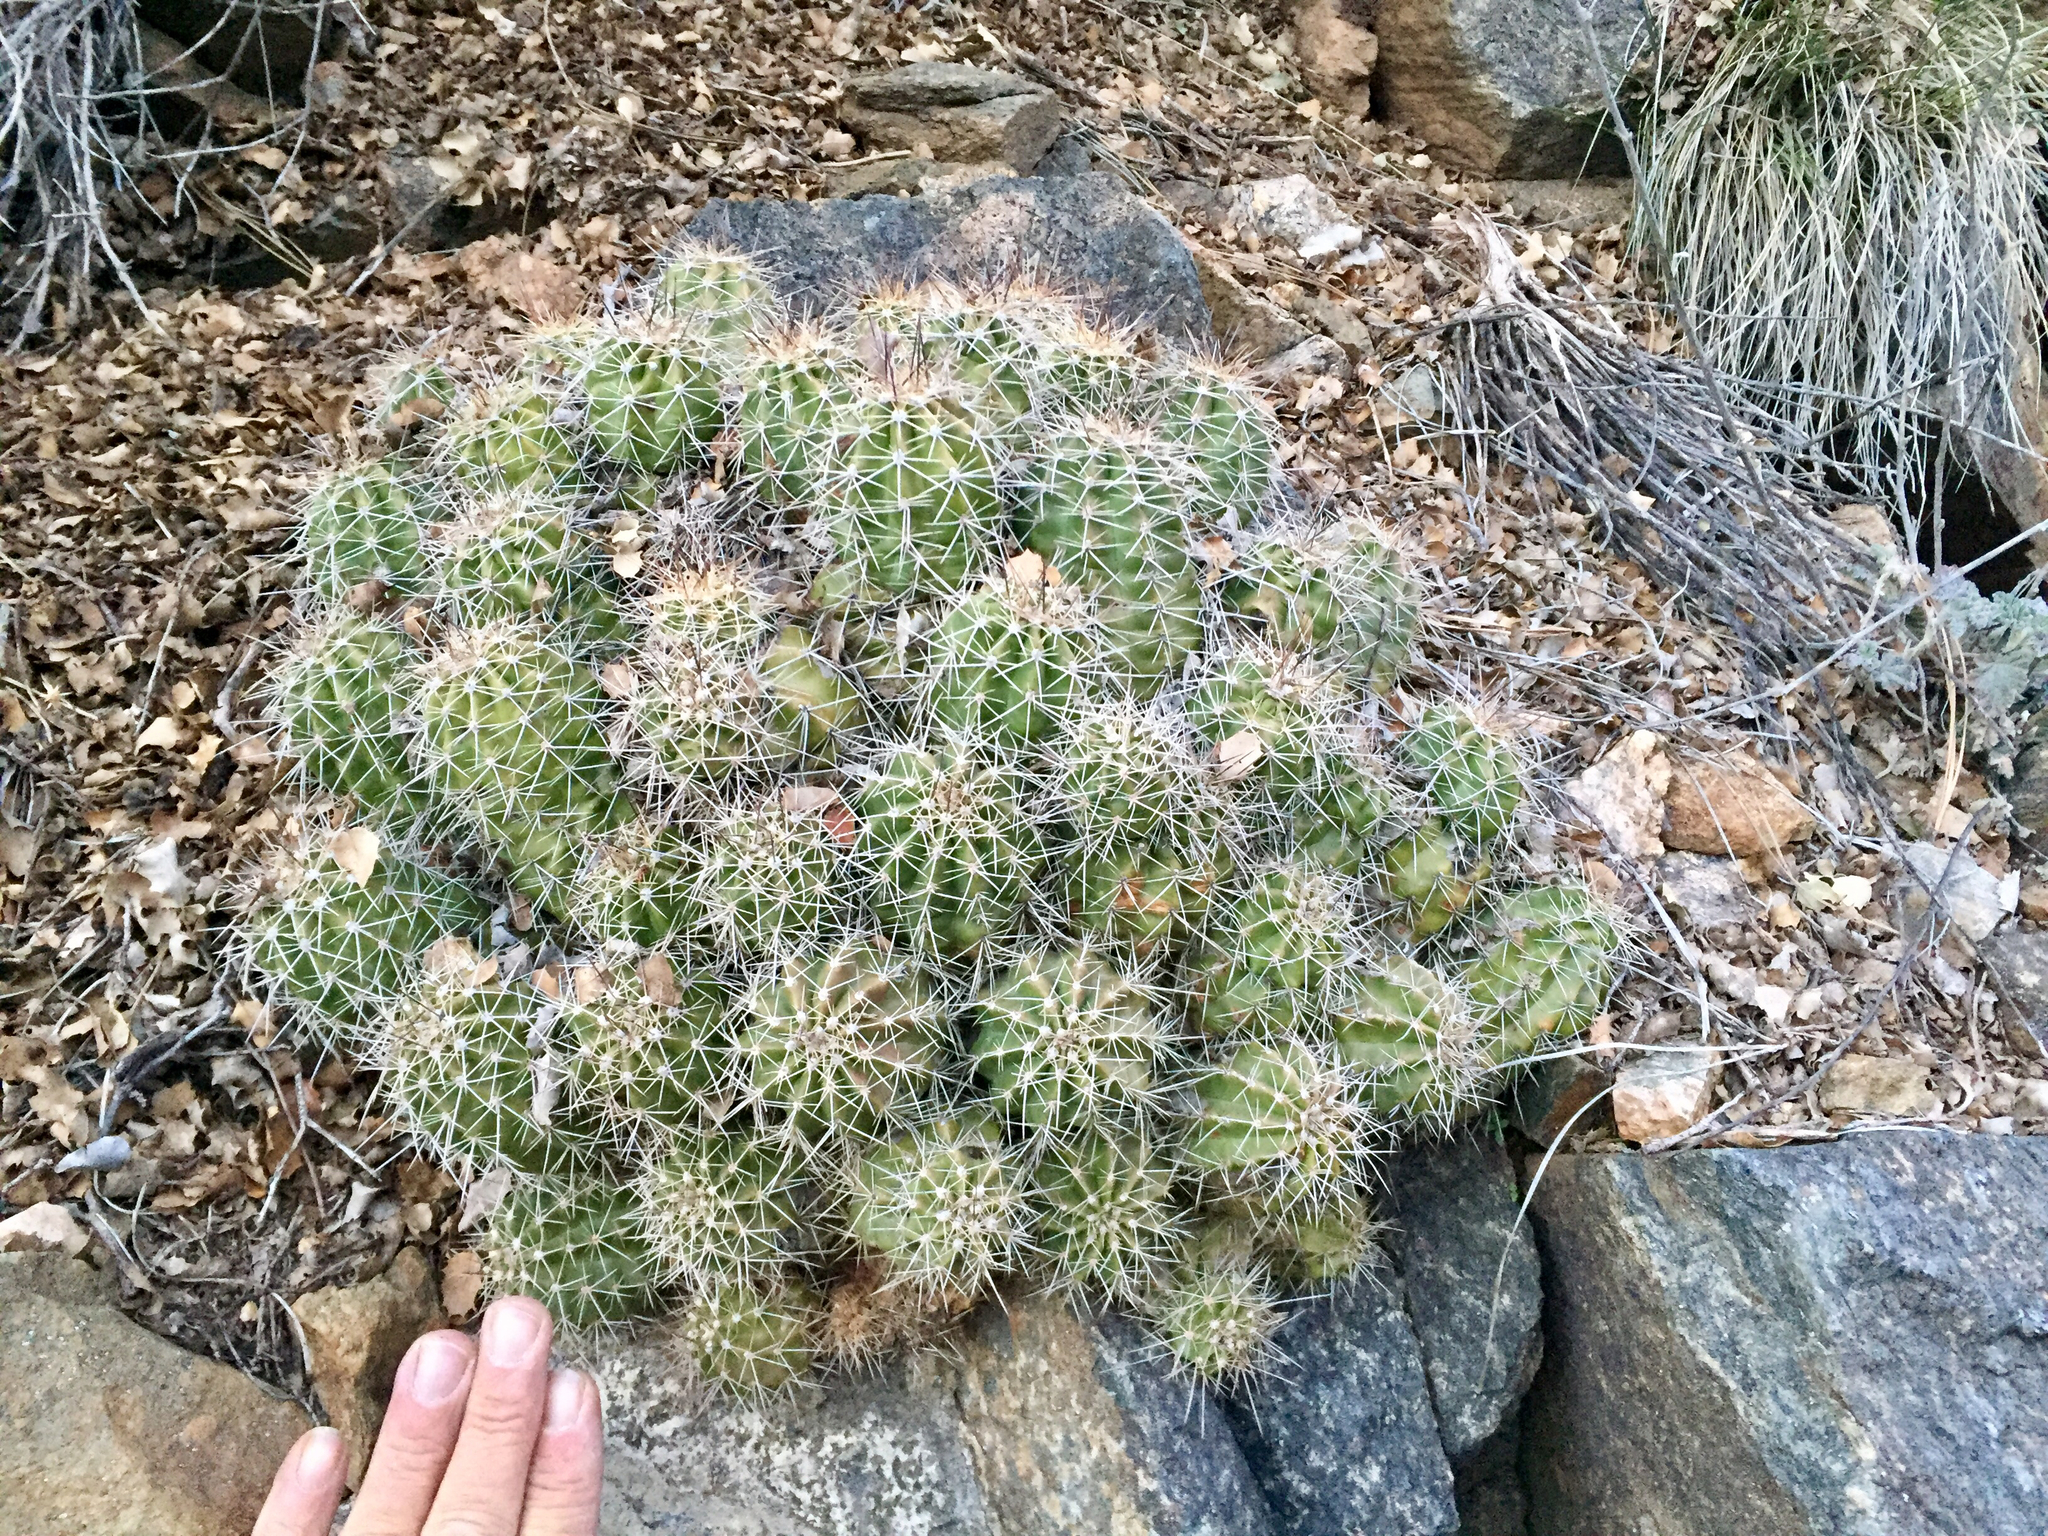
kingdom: Plantae
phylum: Tracheophyta
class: Magnoliopsida
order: Caryophyllales
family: Cactaceae
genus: Echinocereus
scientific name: Echinocereus bakeri
